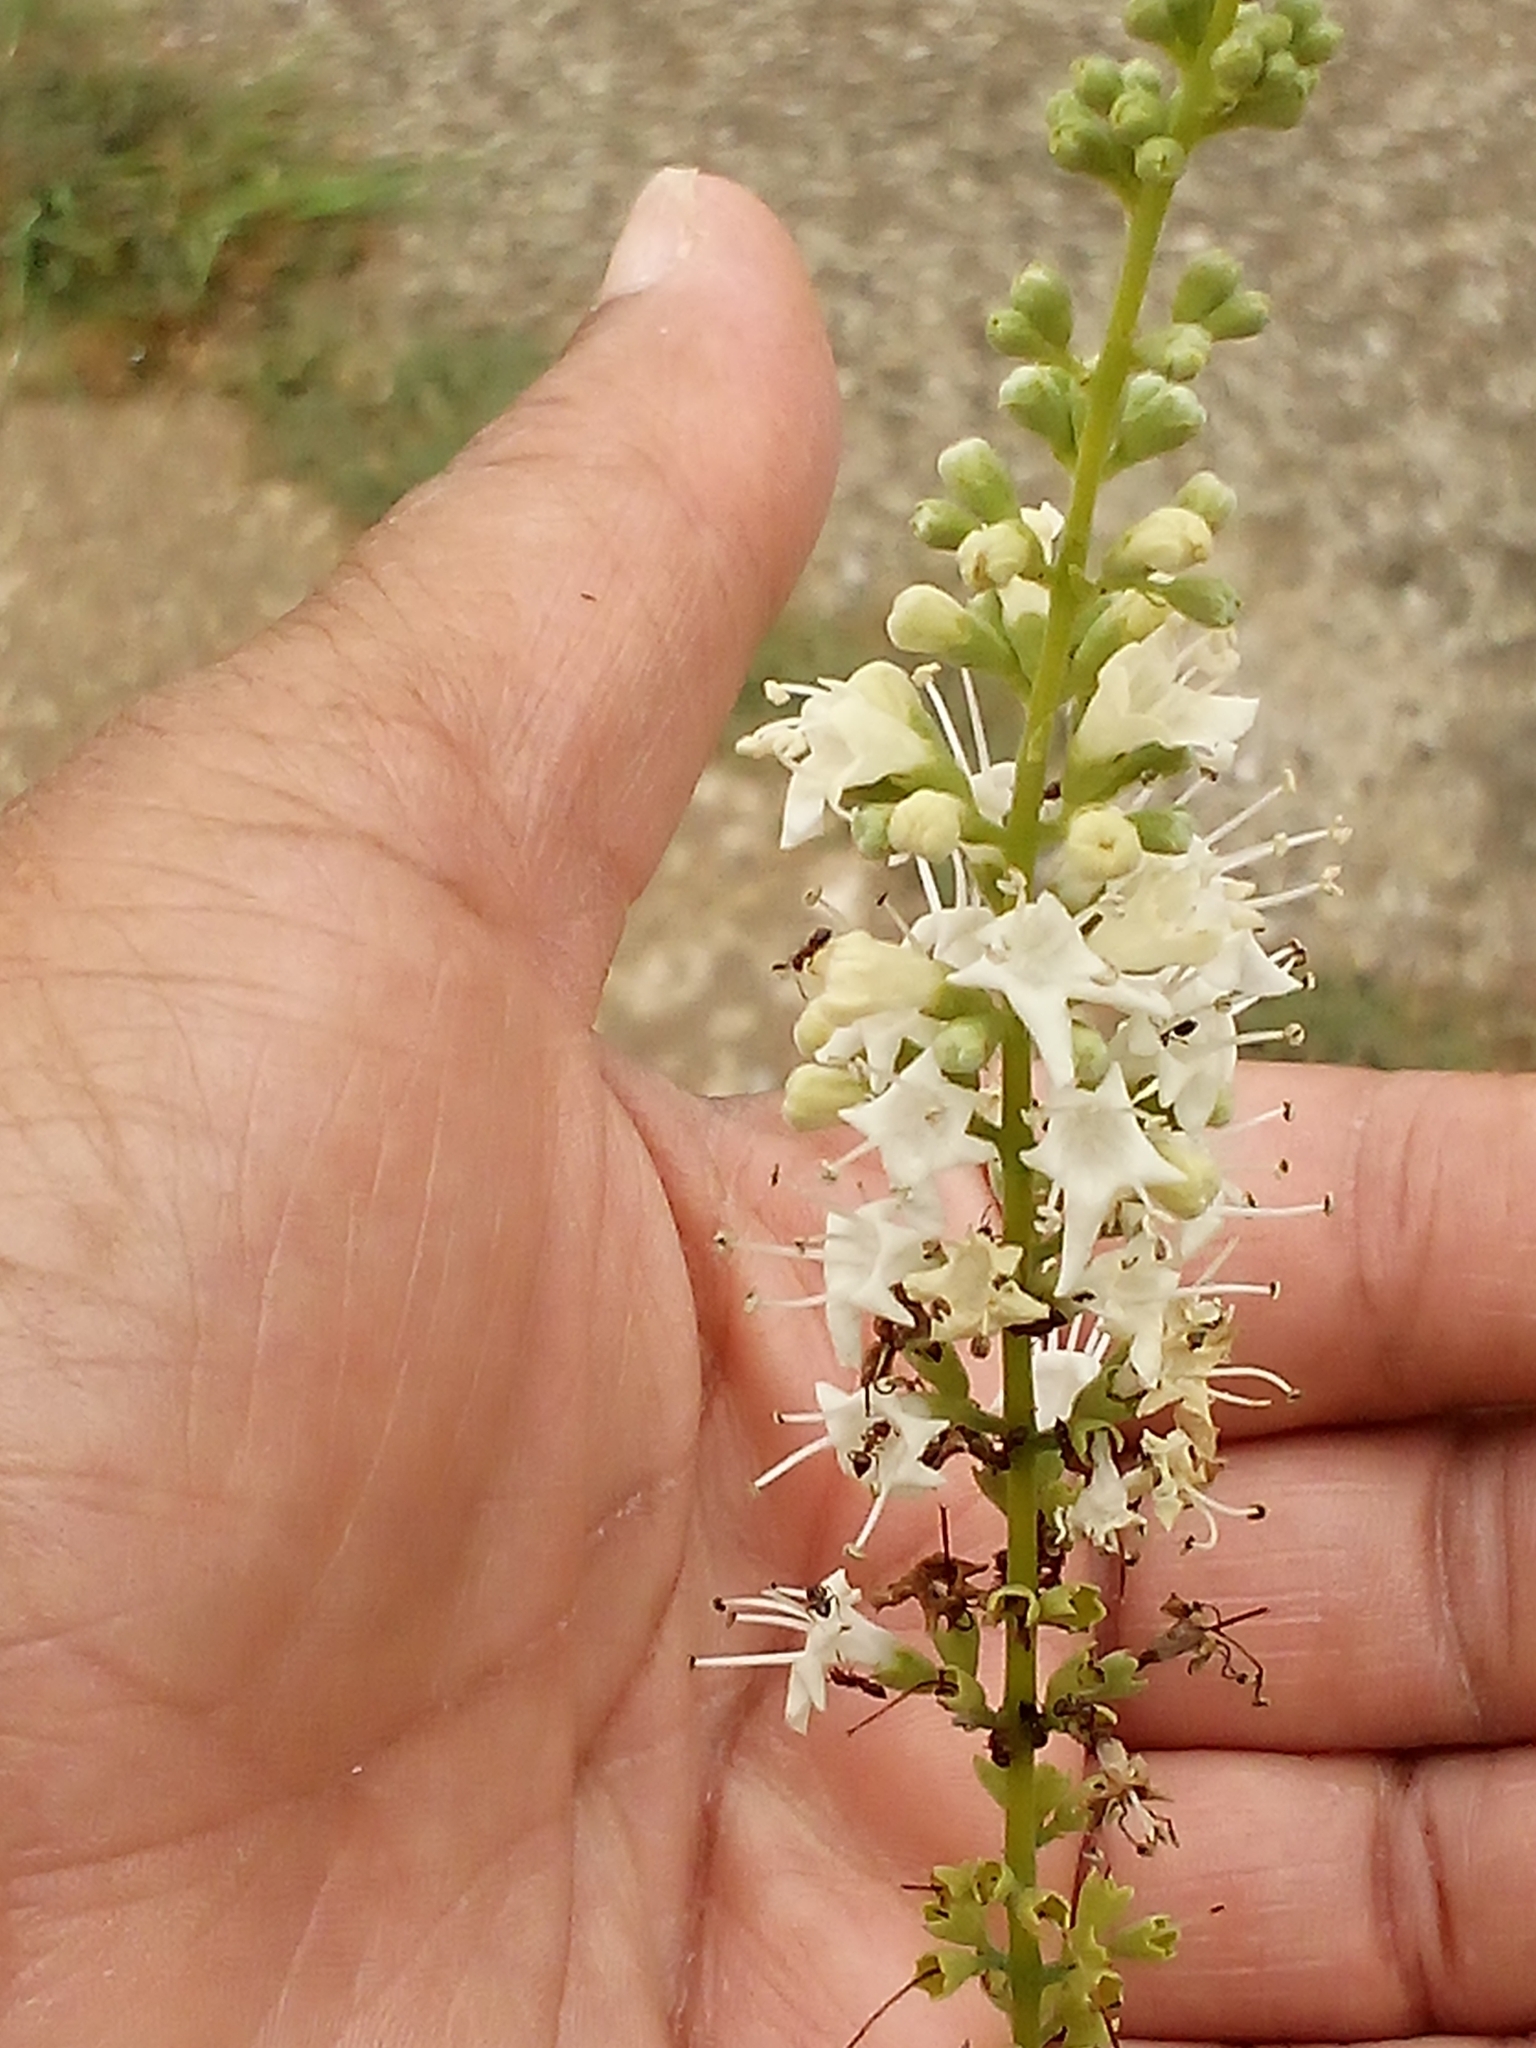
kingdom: Plantae
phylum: Tracheophyta
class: Magnoliopsida
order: Lamiales
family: Lamiaceae
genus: Vitex
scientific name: Vitex agnus-castus
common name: Chasteberry
